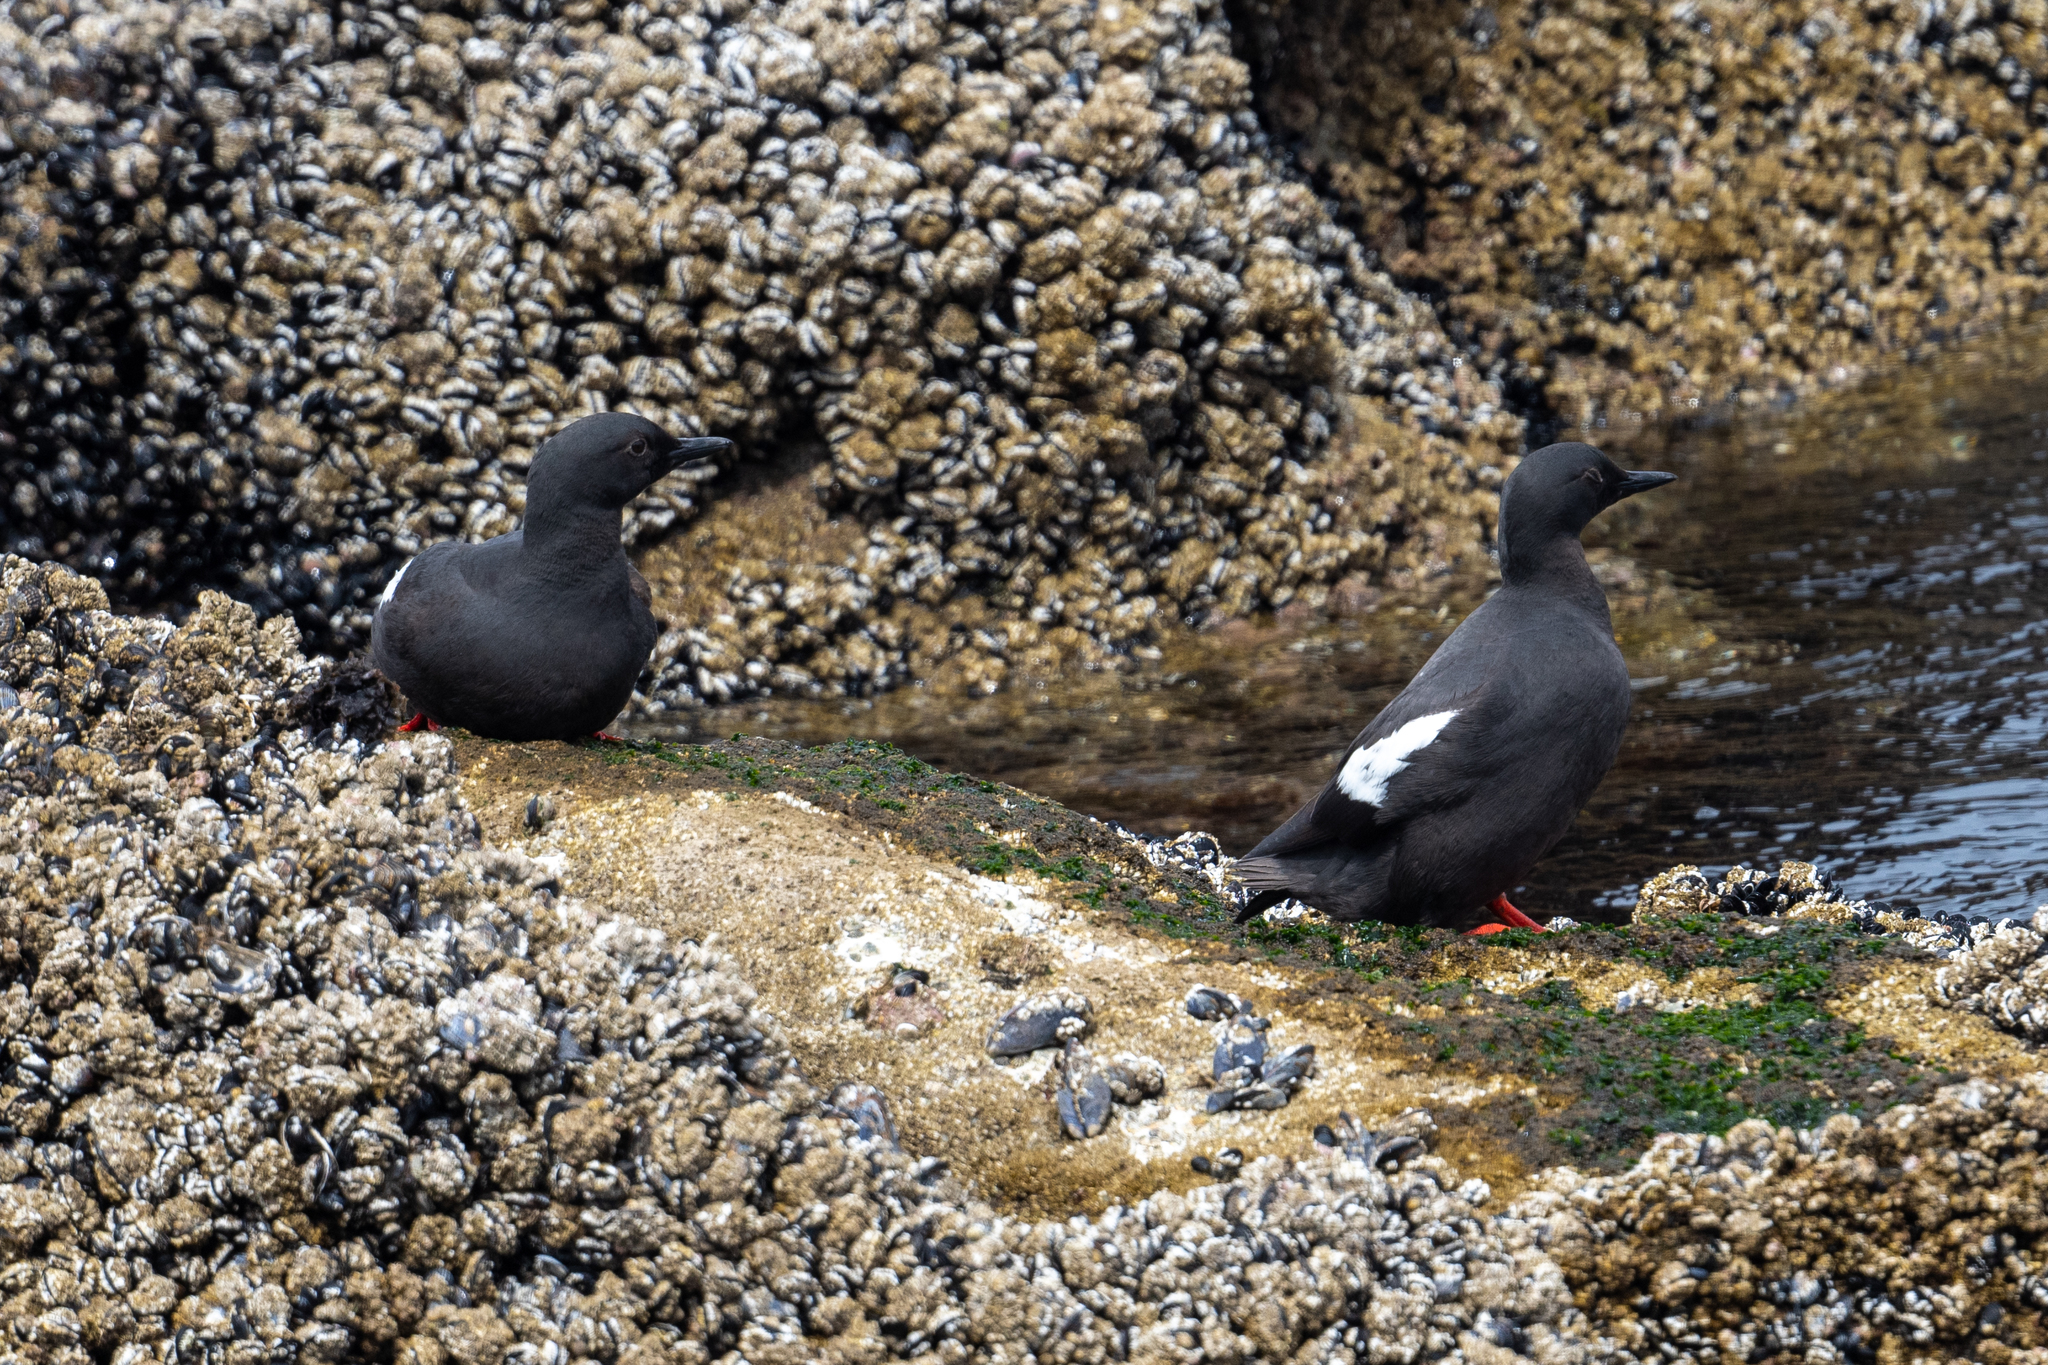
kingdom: Animalia
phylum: Chordata
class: Aves
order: Charadriiformes
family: Alcidae
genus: Cepphus
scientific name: Cepphus columba
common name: Pigeon guillemot
